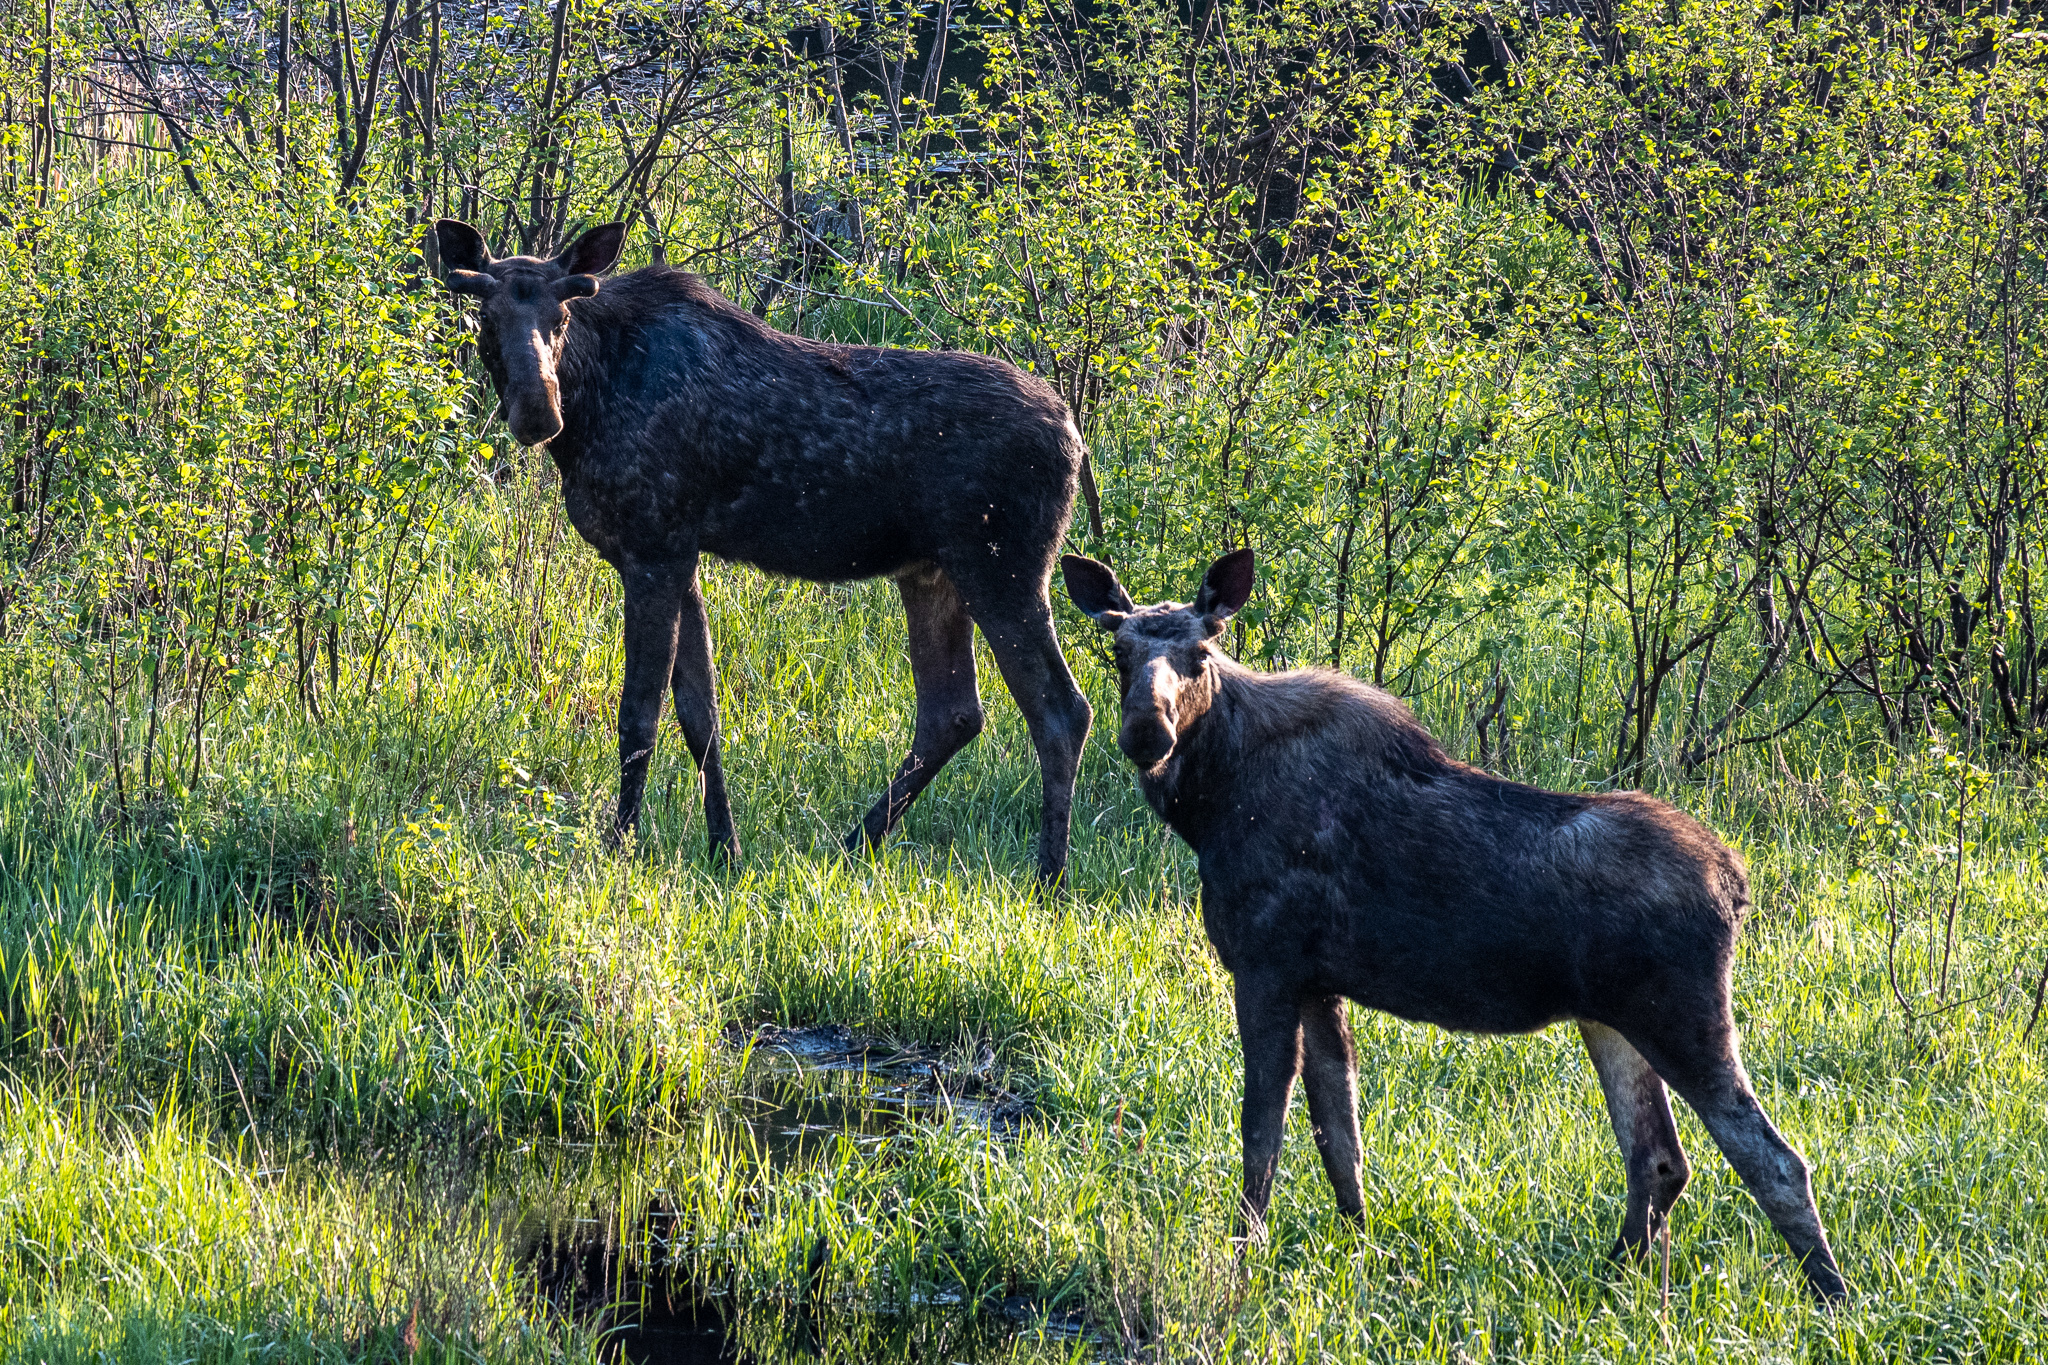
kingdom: Animalia
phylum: Chordata
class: Mammalia
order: Artiodactyla
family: Cervidae
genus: Alces
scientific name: Alces alces
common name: Moose
